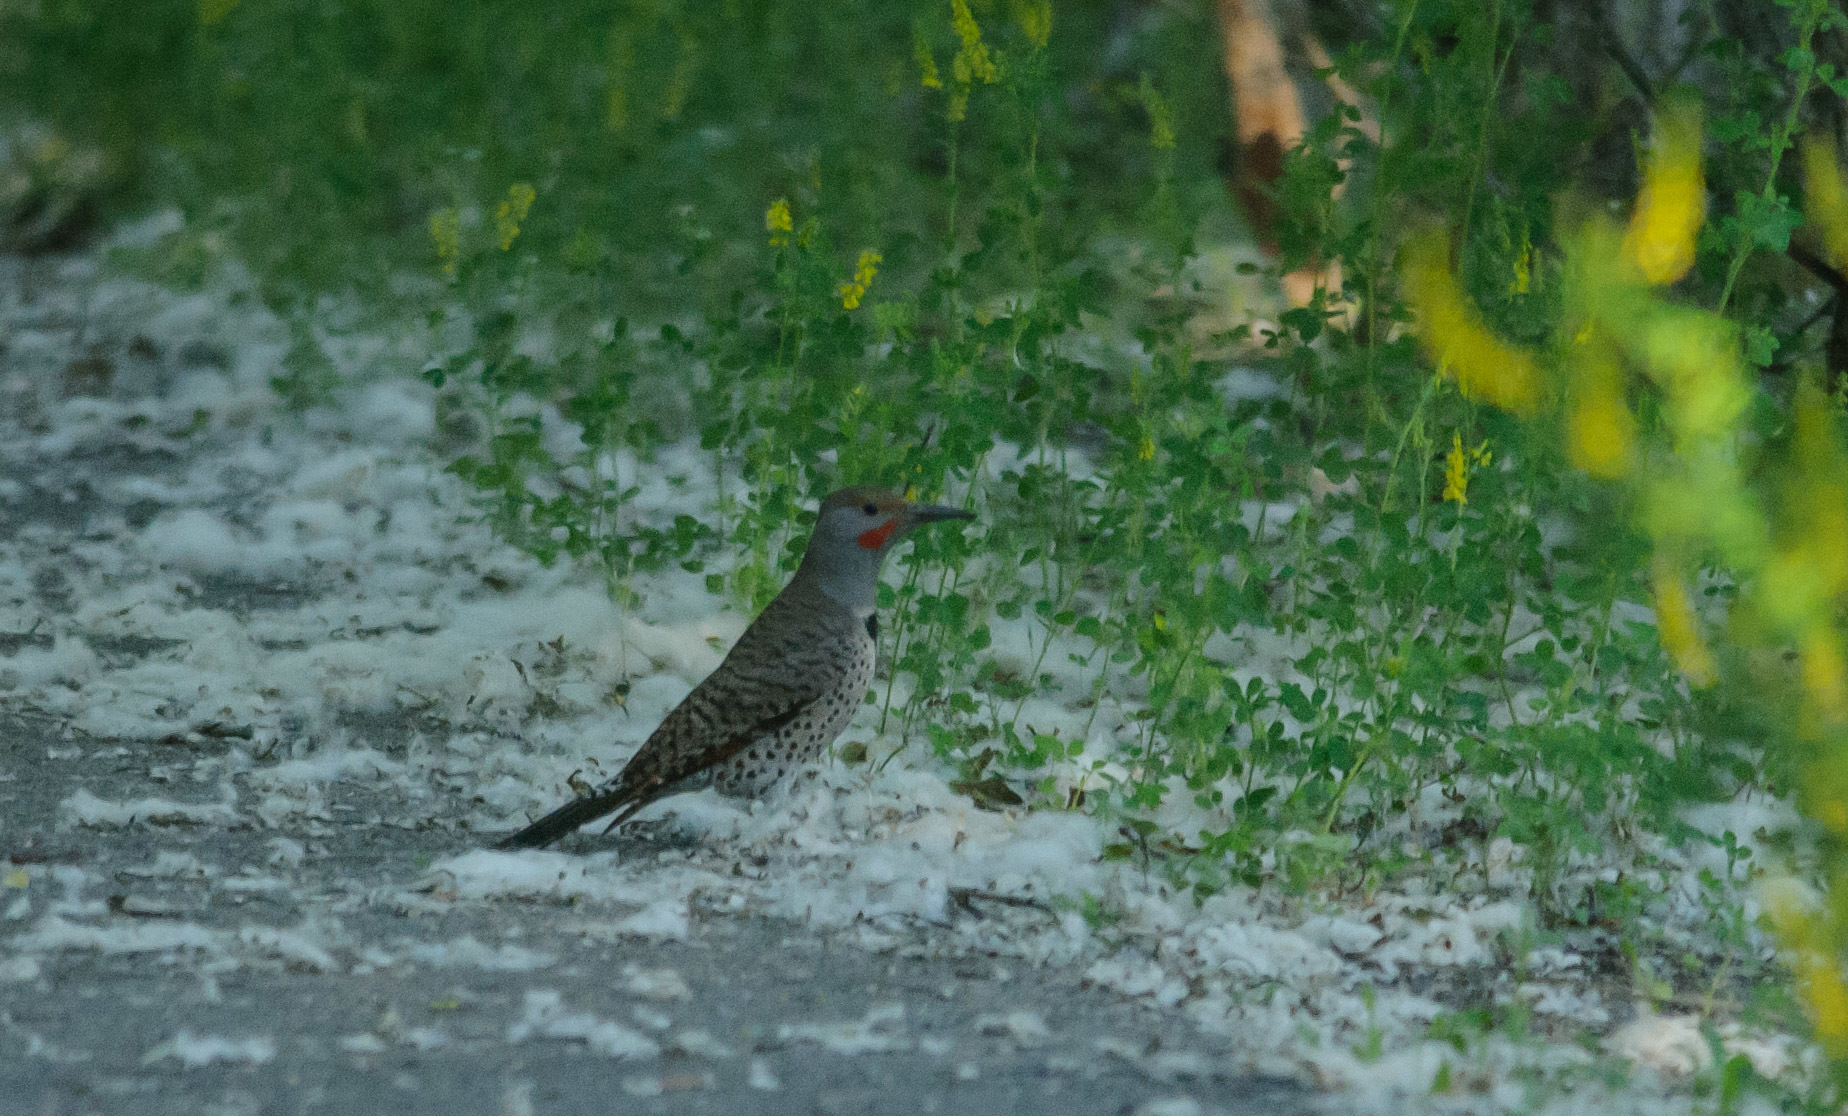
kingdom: Animalia
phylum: Chordata
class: Aves
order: Piciformes
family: Picidae
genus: Colaptes
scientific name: Colaptes auratus
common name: Northern flicker
